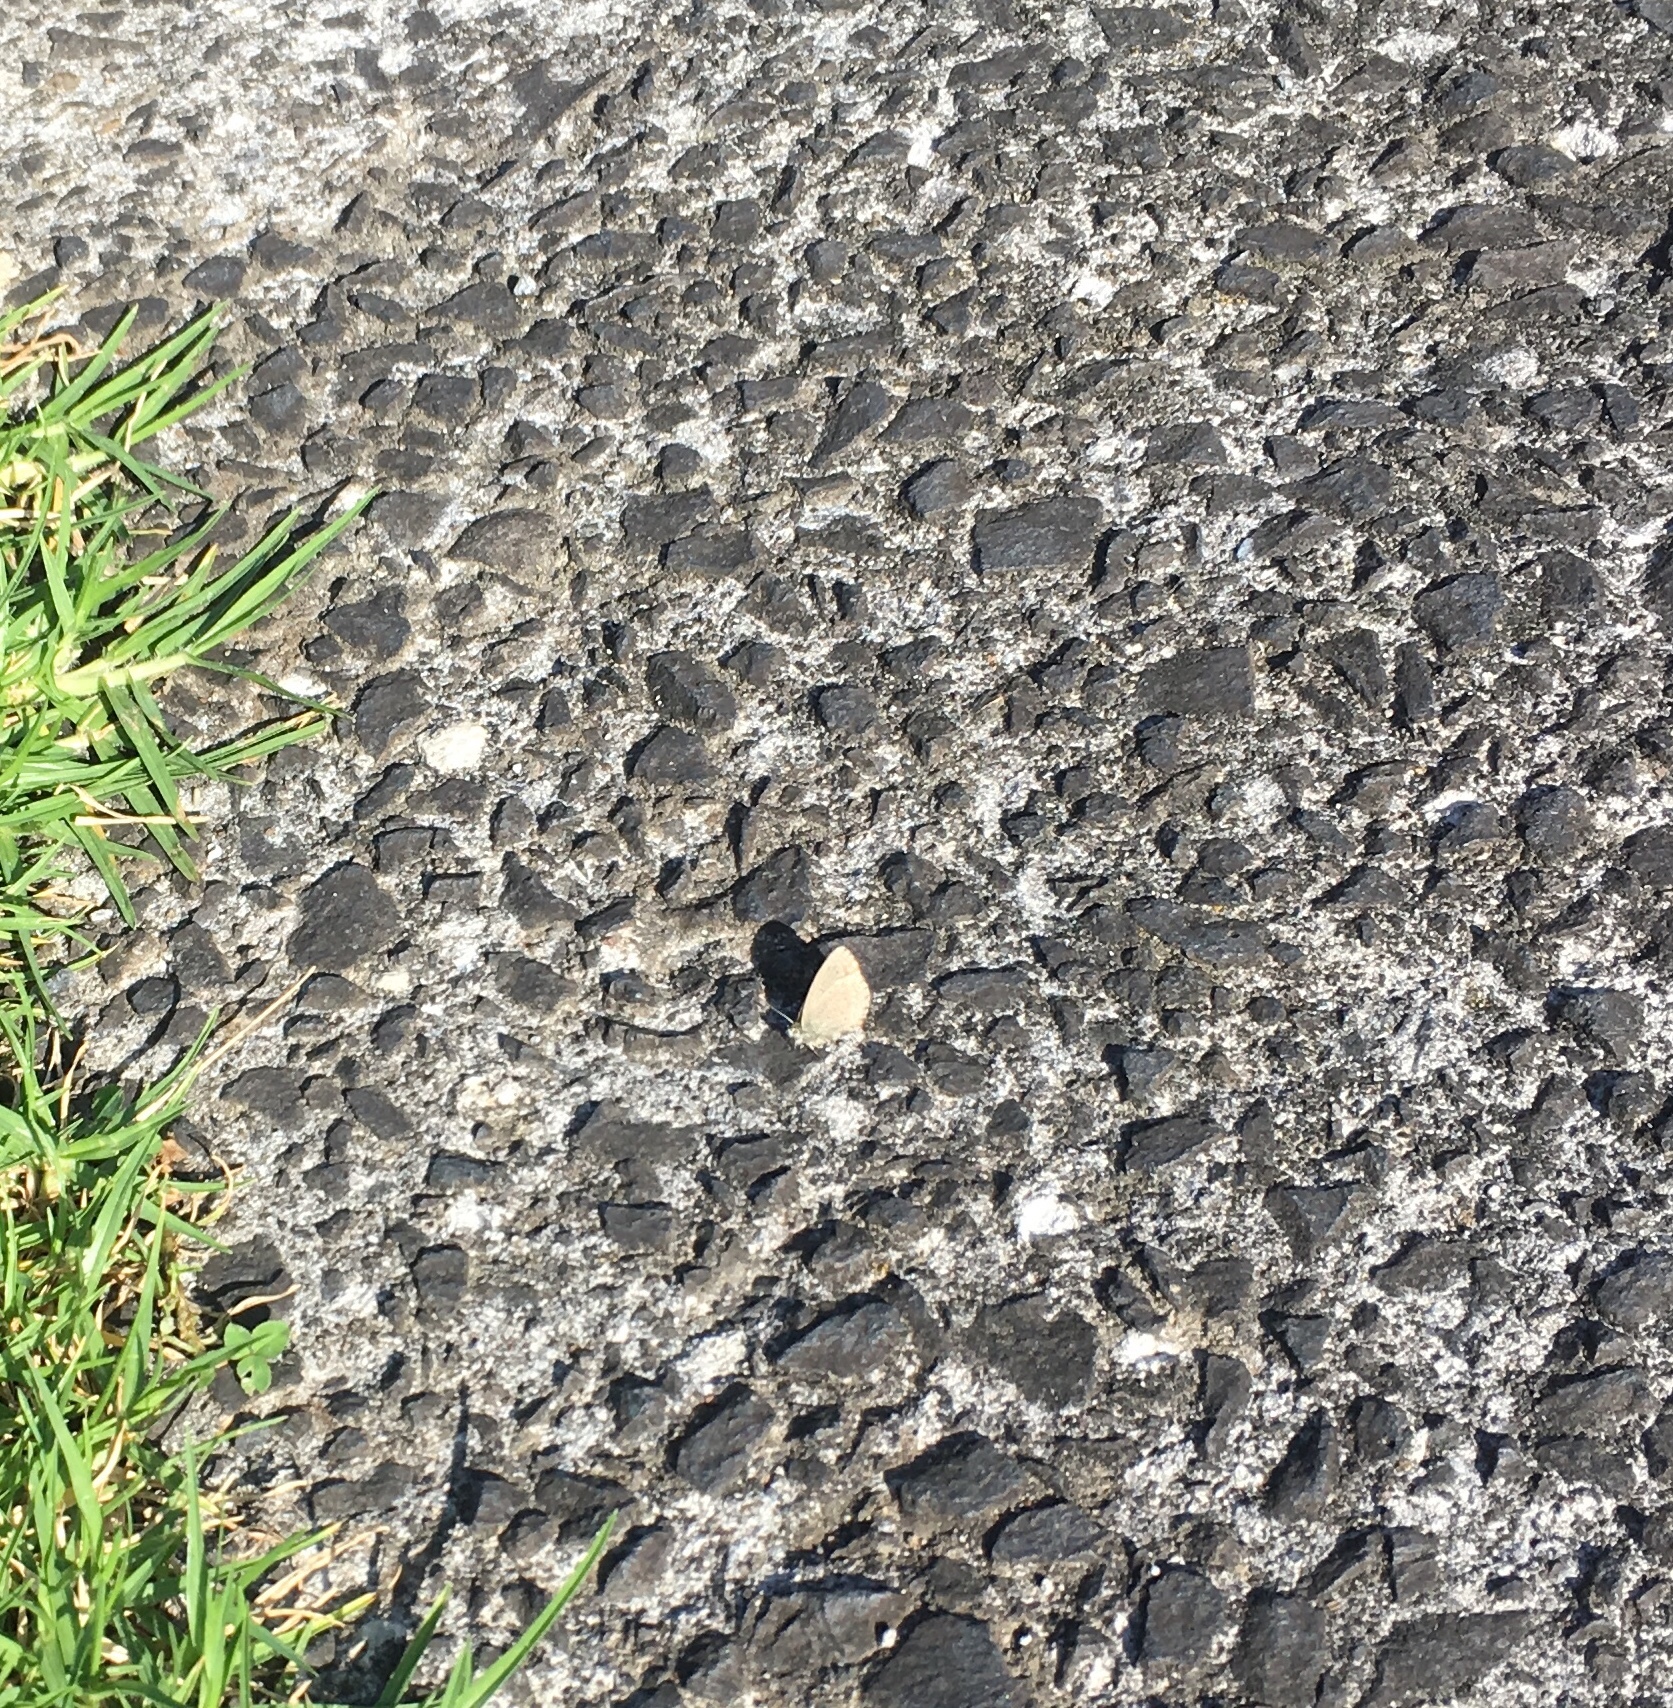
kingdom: Animalia
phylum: Arthropoda
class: Insecta
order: Lepidoptera
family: Lycaenidae
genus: Zizina
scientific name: Zizina labradus
